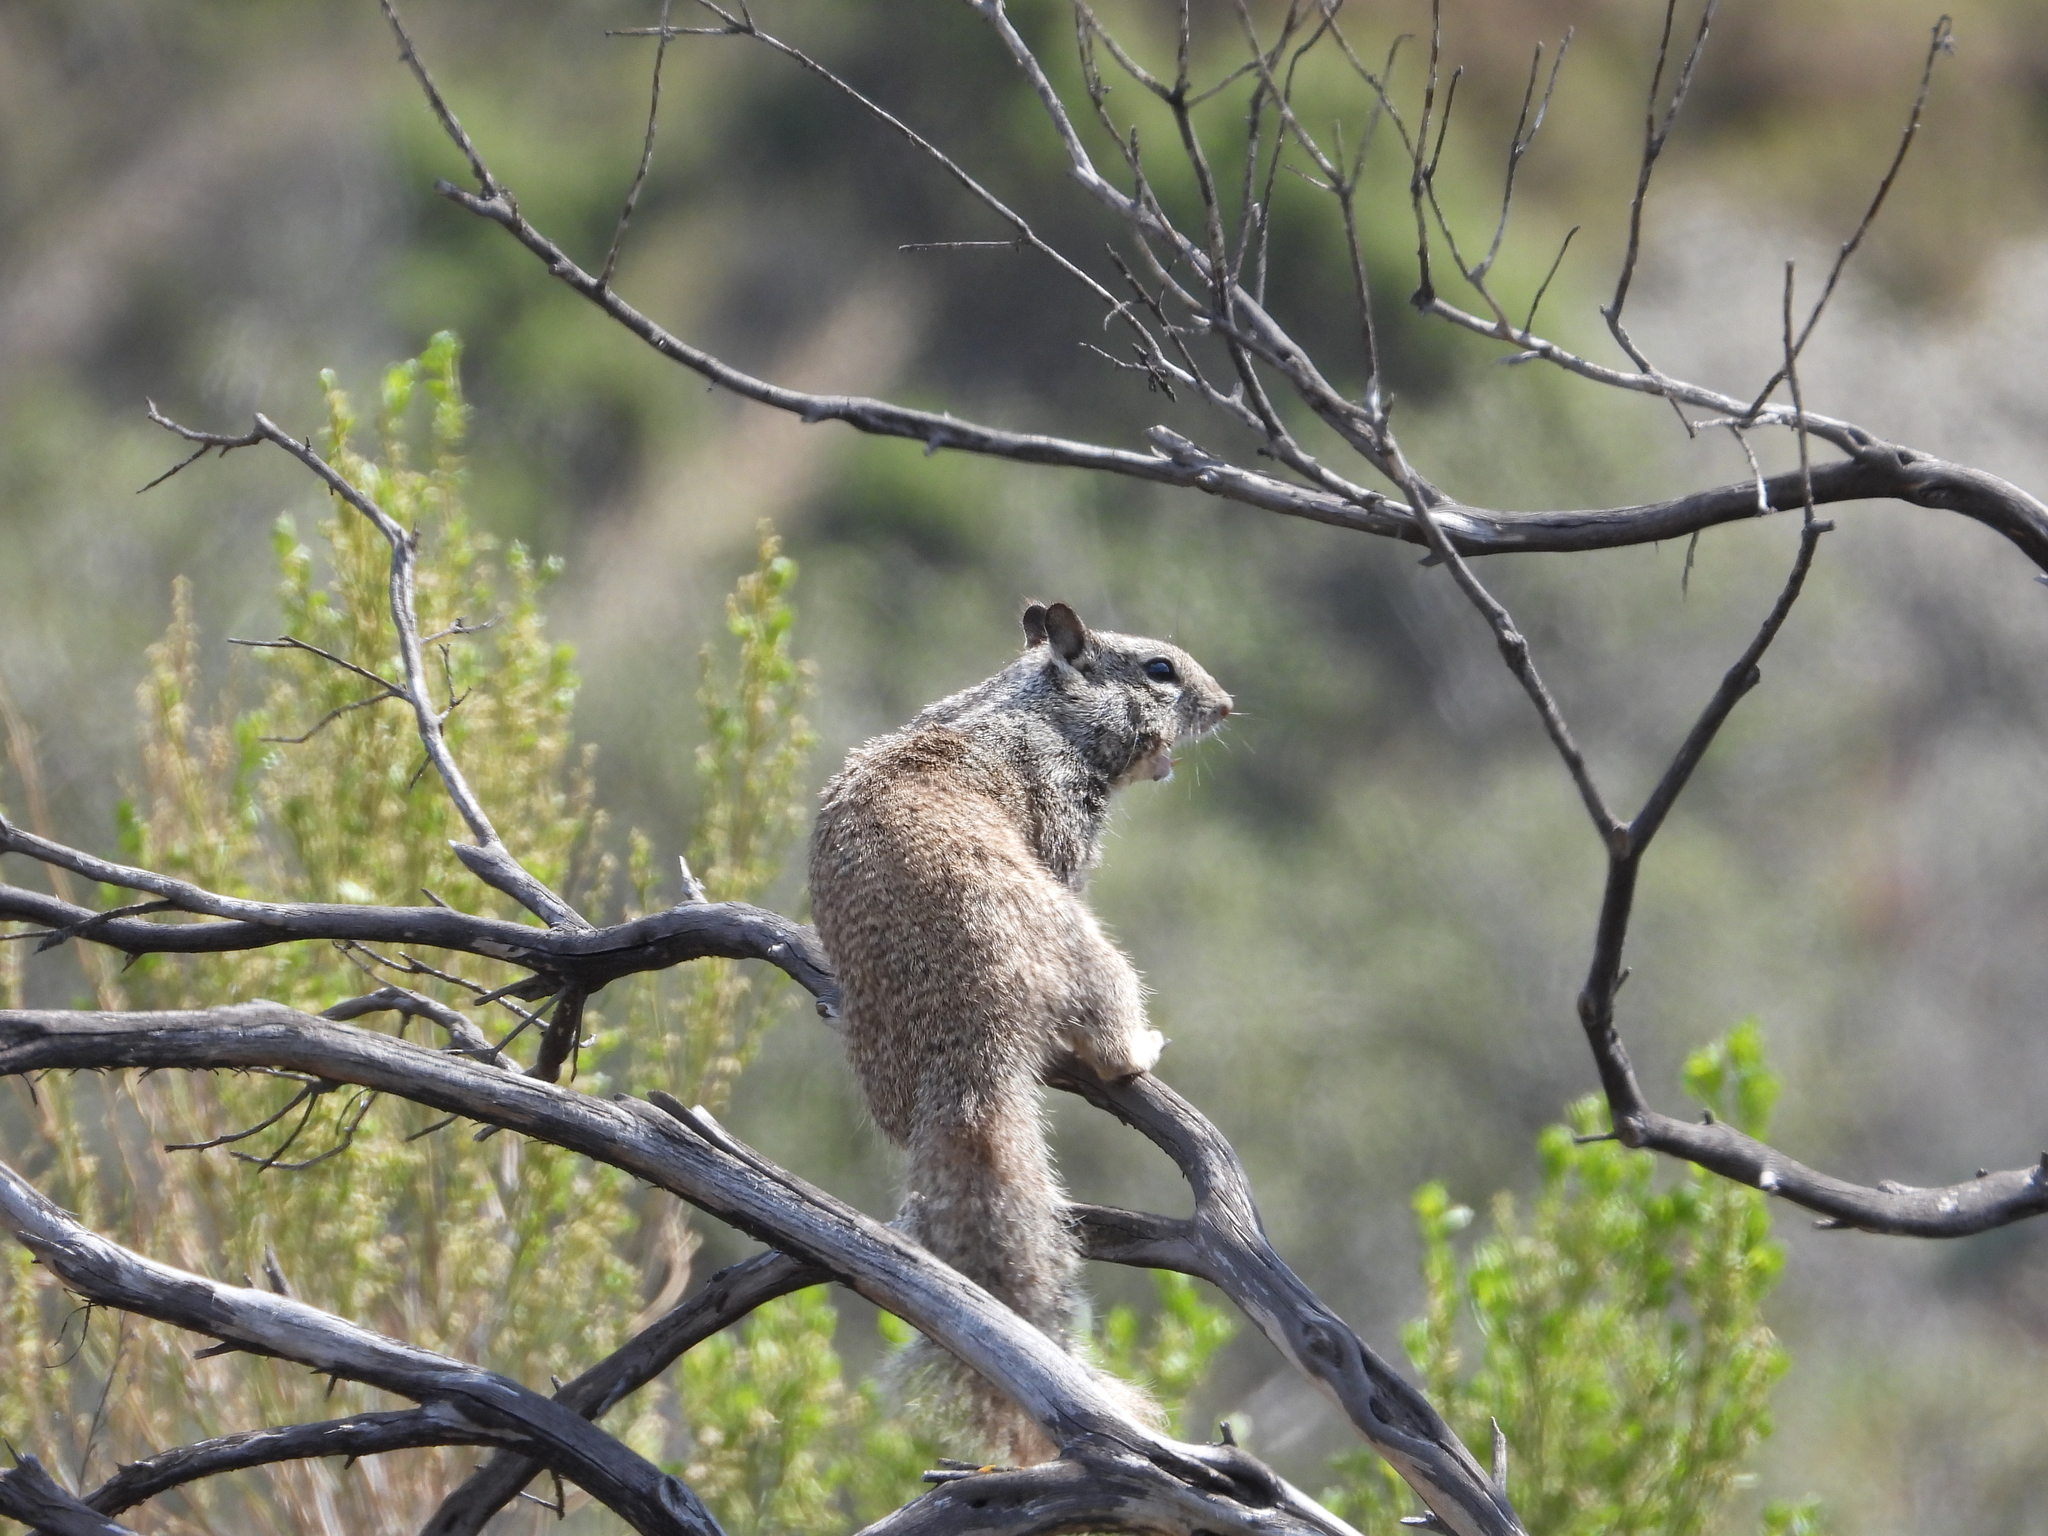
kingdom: Animalia
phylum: Chordata
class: Mammalia
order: Rodentia
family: Sciuridae
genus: Otospermophilus
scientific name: Otospermophilus beecheyi
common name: California ground squirrel
